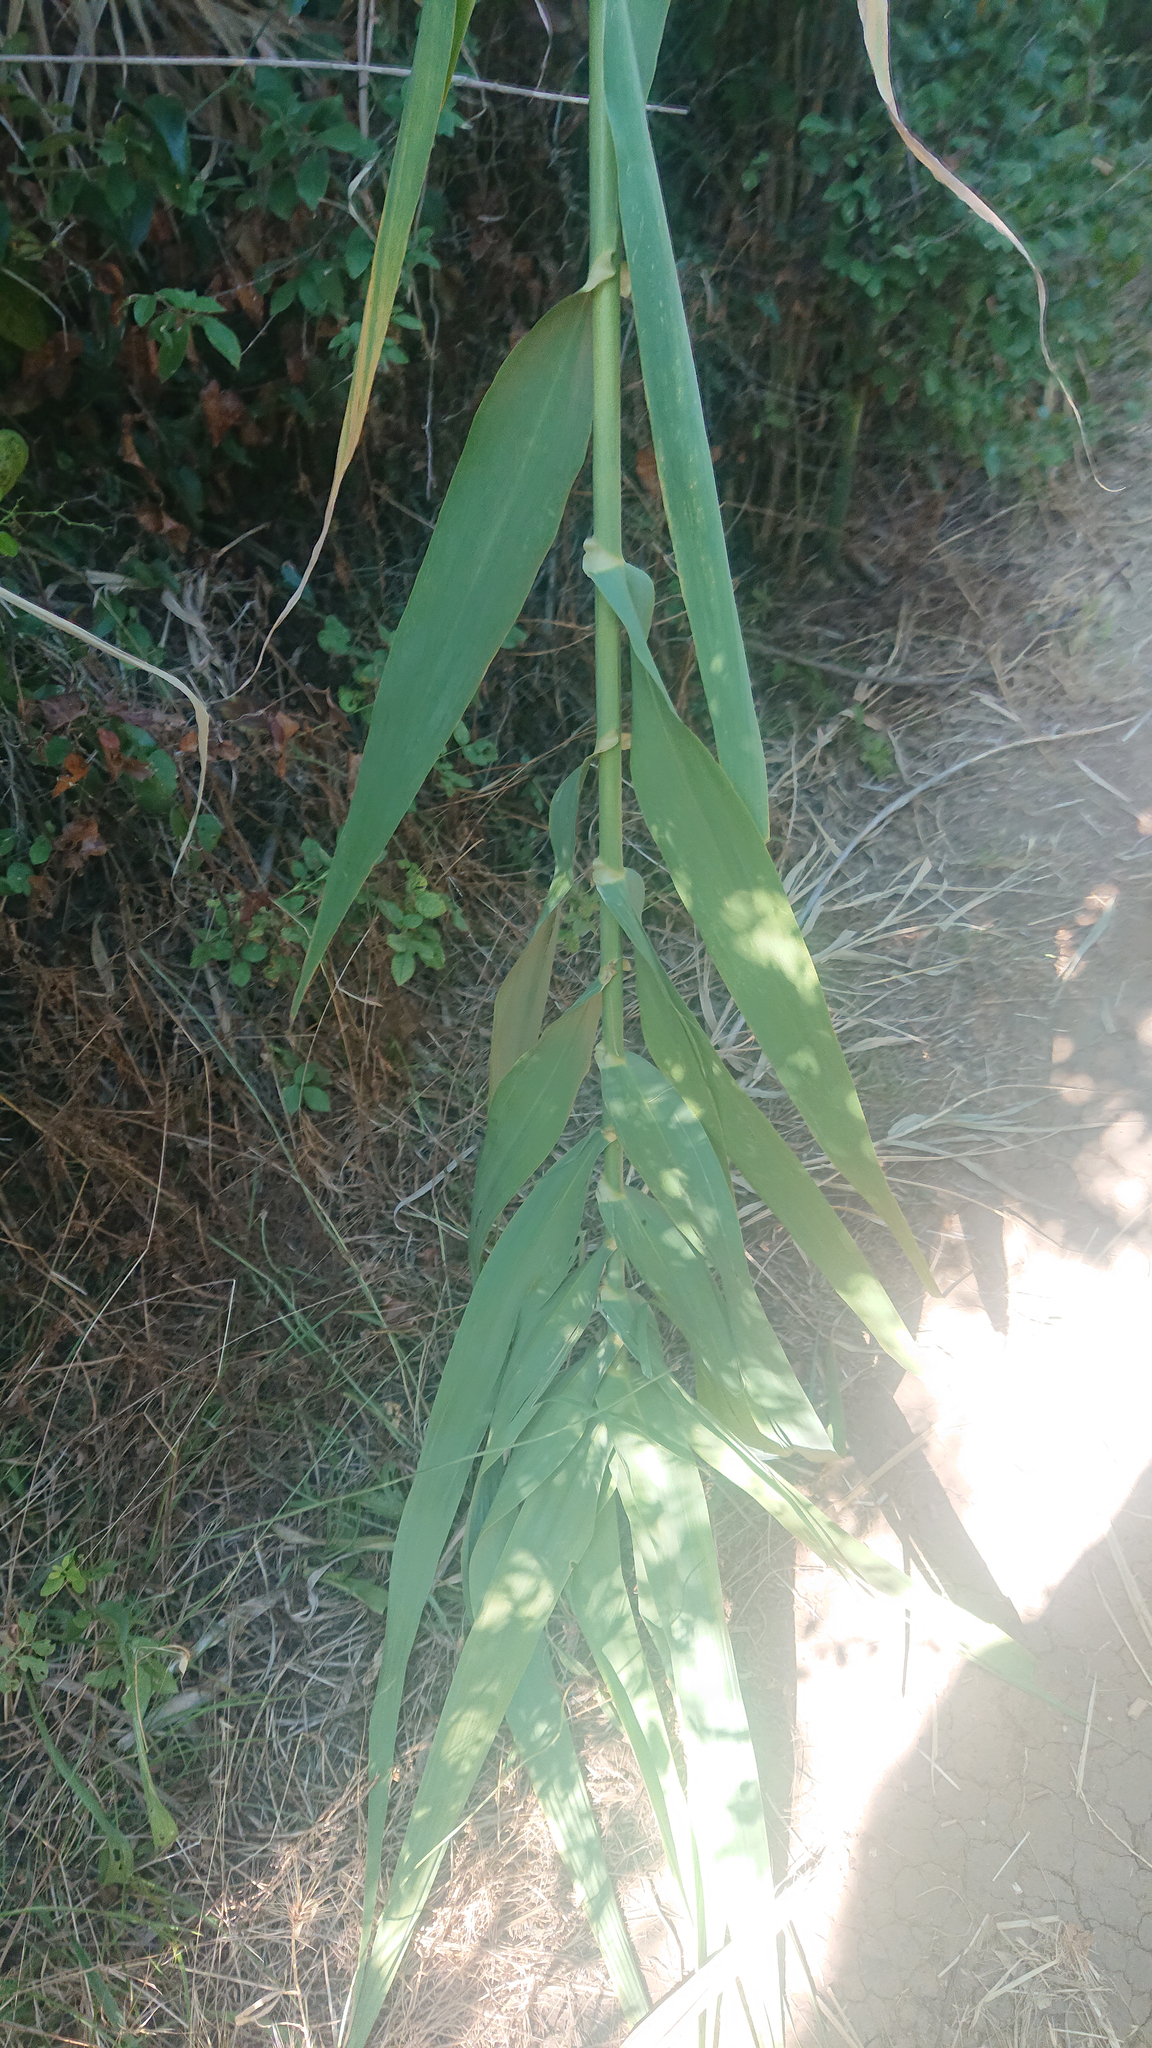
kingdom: Plantae
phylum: Tracheophyta
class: Liliopsida
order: Poales
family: Poaceae
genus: Arundo
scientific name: Arundo donax
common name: Giant reed
